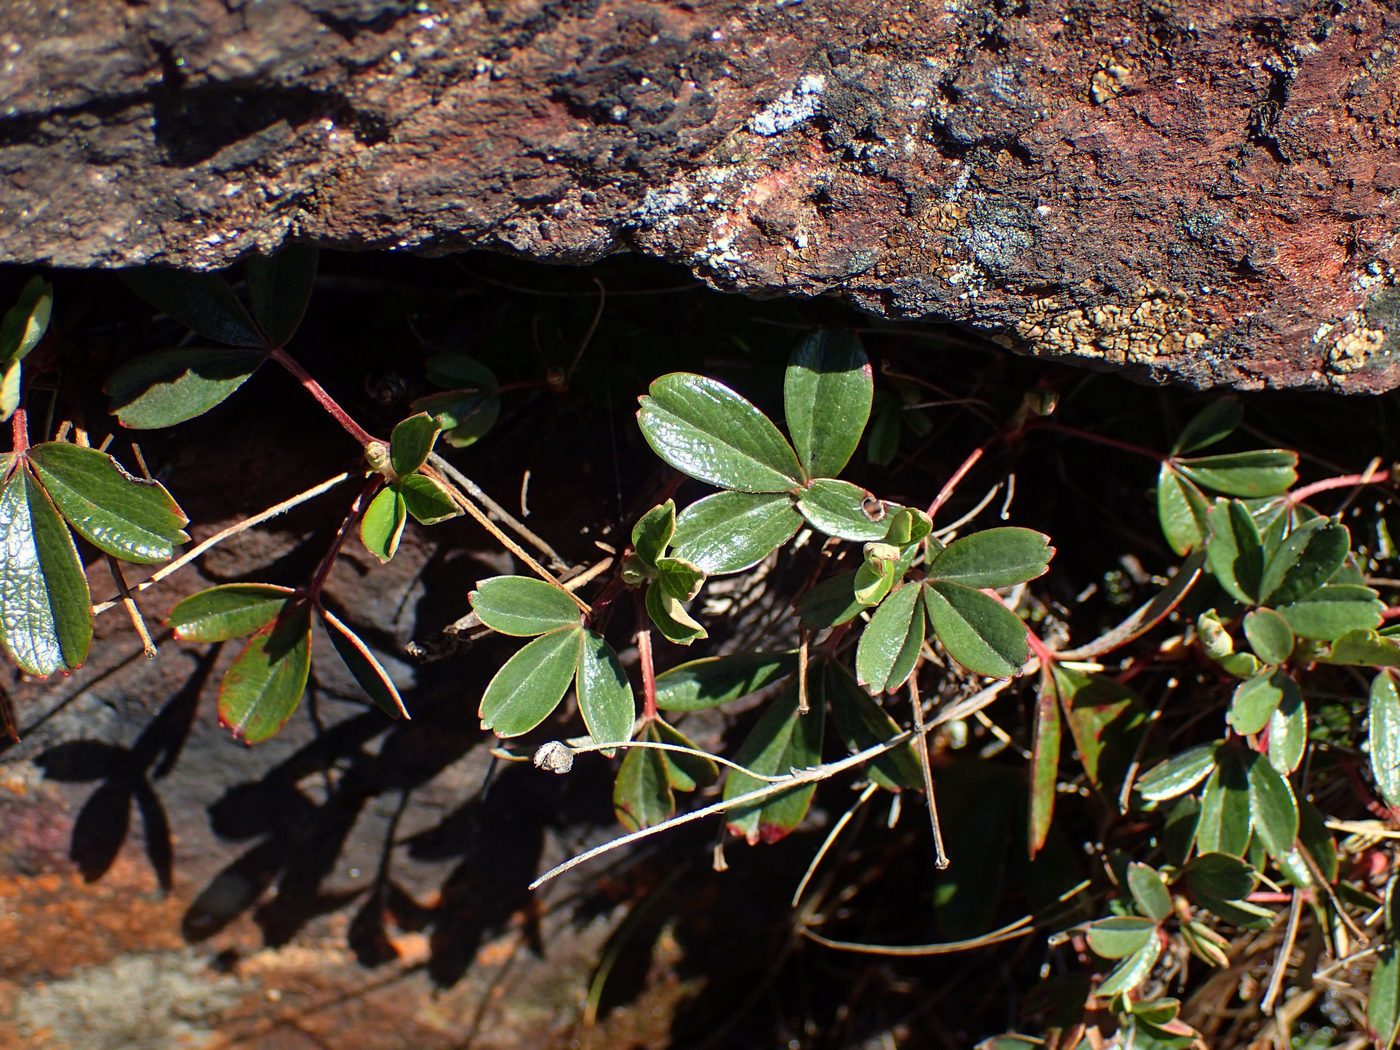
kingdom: Plantae
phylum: Tracheophyta
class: Magnoliopsida
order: Rosales
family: Rosaceae
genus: Sibbaldia
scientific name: Sibbaldia tridentata
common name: Three-toothed cinquefoil
